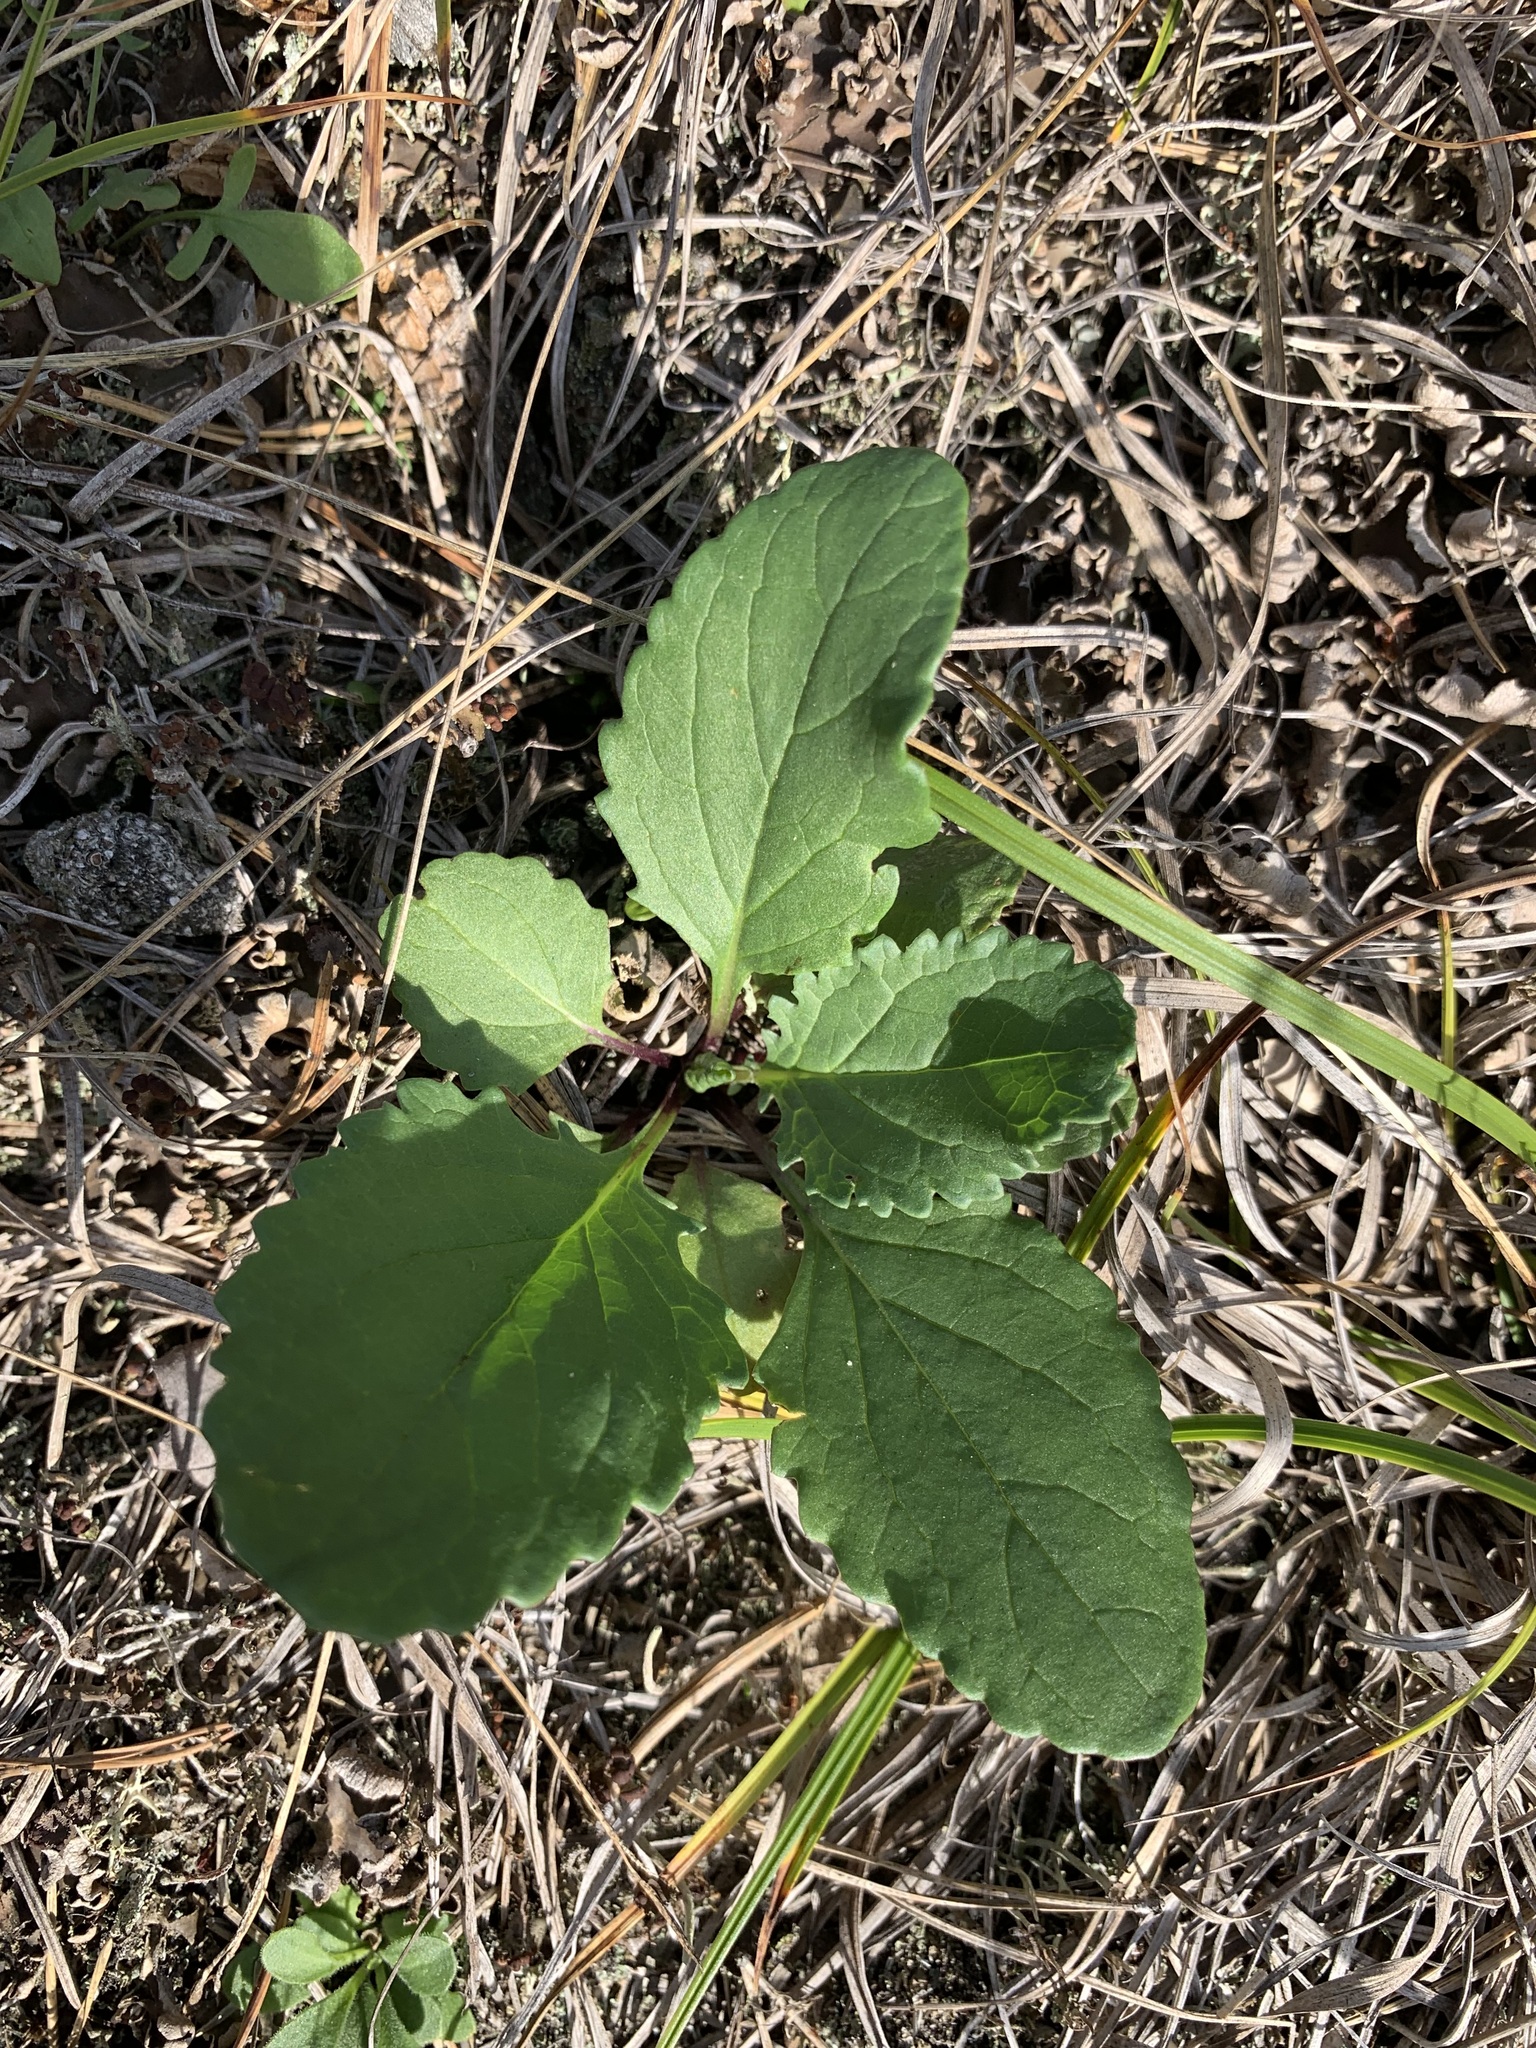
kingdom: Plantae
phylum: Tracheophyta
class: Magnoliopsida
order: Asterales
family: Asteraceae
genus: Jacobaea
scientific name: Jacobaea vulgaris
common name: Stinking willie
